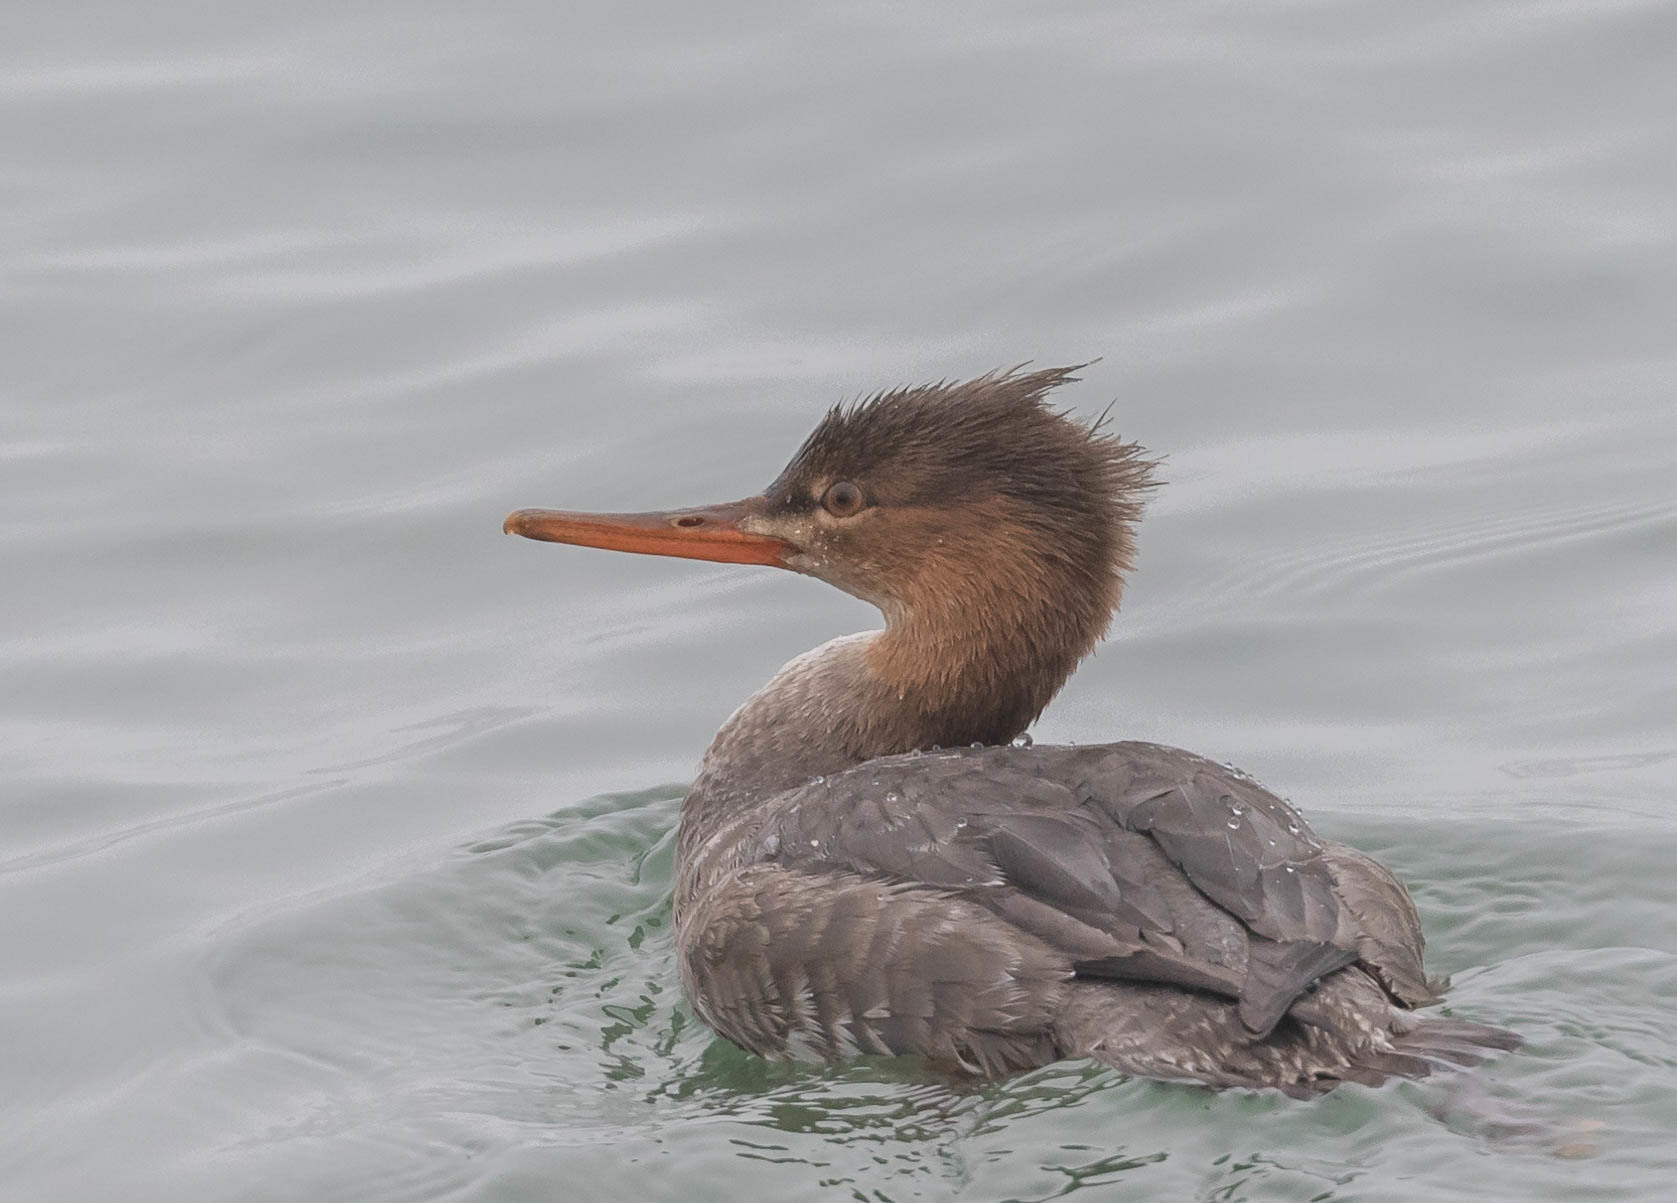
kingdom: Animalia
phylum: Chordata
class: Aves
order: Anseriformes
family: Anatidae
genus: Mergus
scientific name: Mergus serrator
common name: Red-breasted merganser
